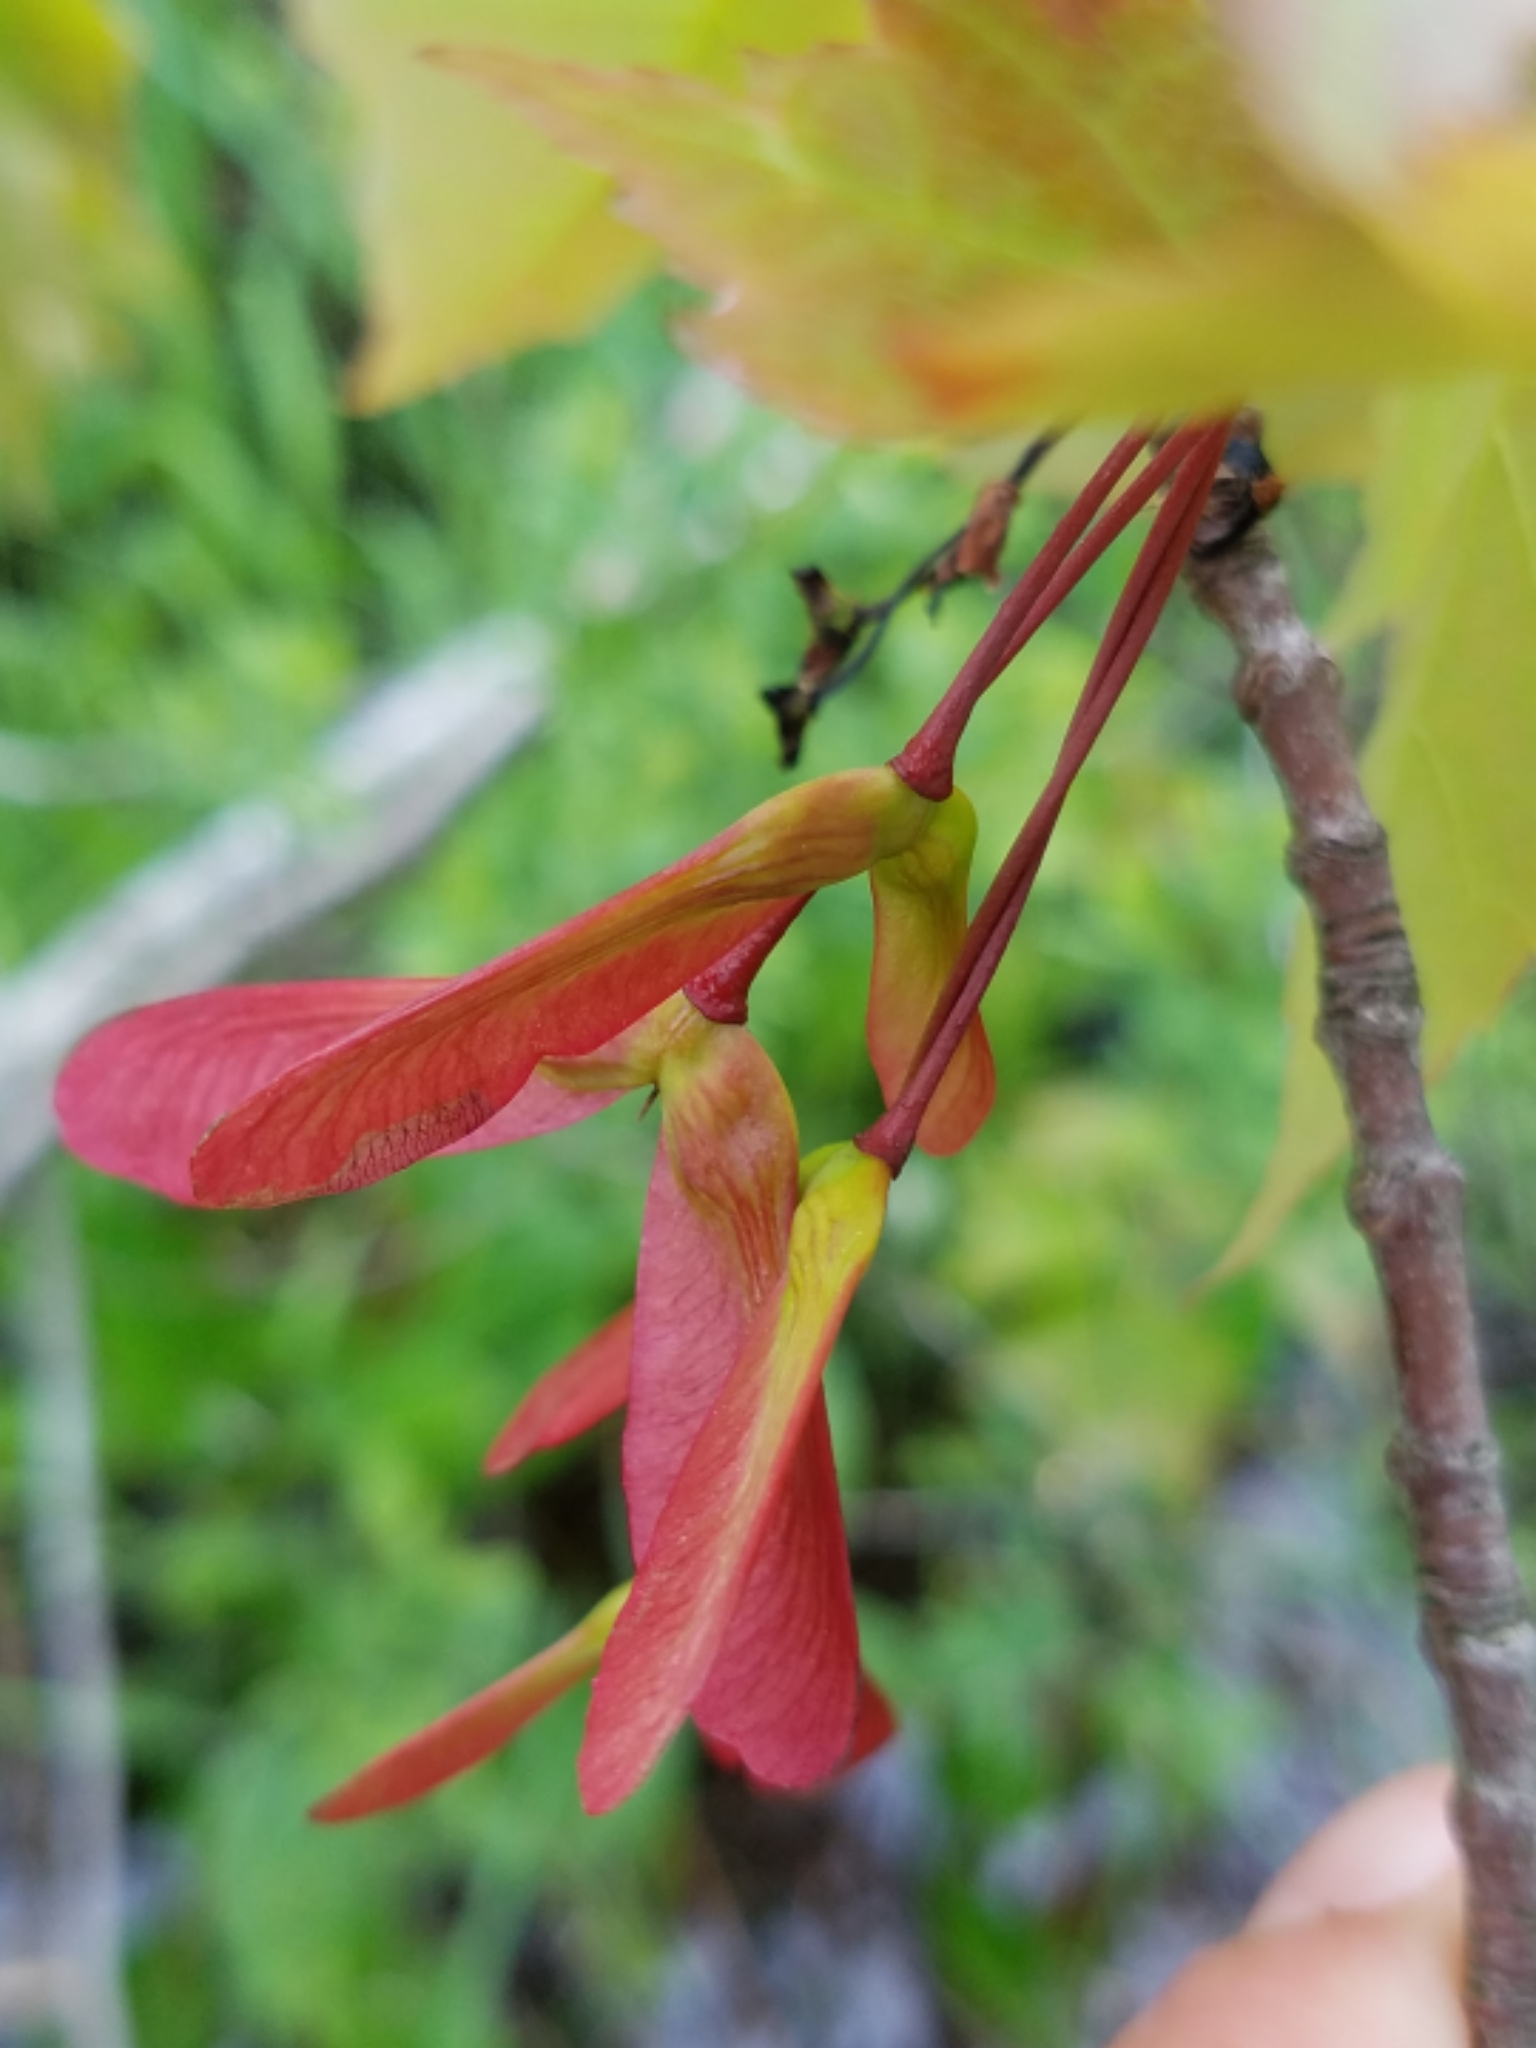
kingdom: Plantae
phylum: Tracheophyta
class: Magnoliopsida
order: Sapindales
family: Sapindaceae
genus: Acer
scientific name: Acer rubrum
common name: Red maple
